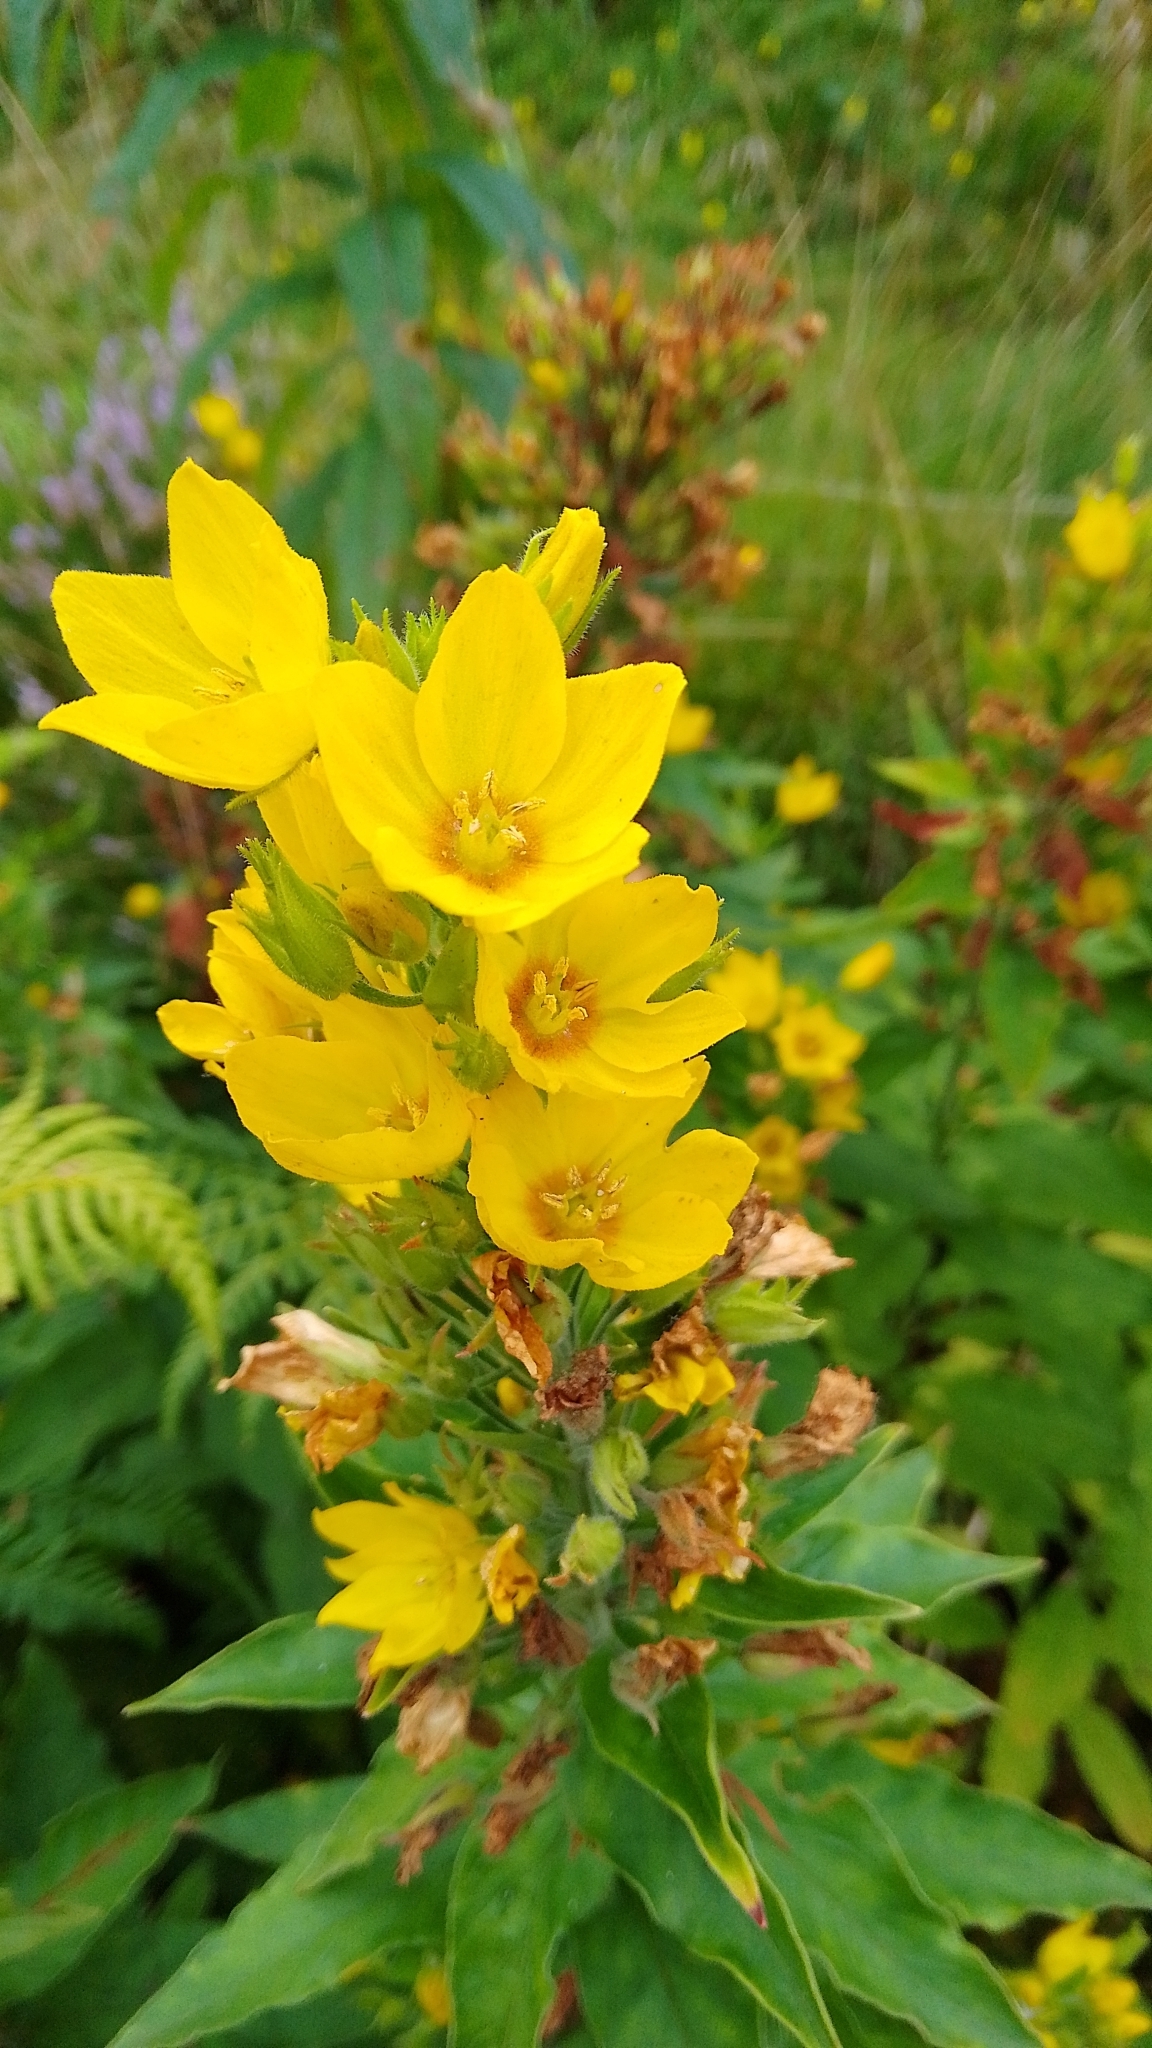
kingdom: Plantae
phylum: Tracheophyta
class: Magnoliopsida
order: Ericales
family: Primulaceae
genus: Lysimachia
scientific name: Lysimachia punctata
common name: Dotted loosestrife
